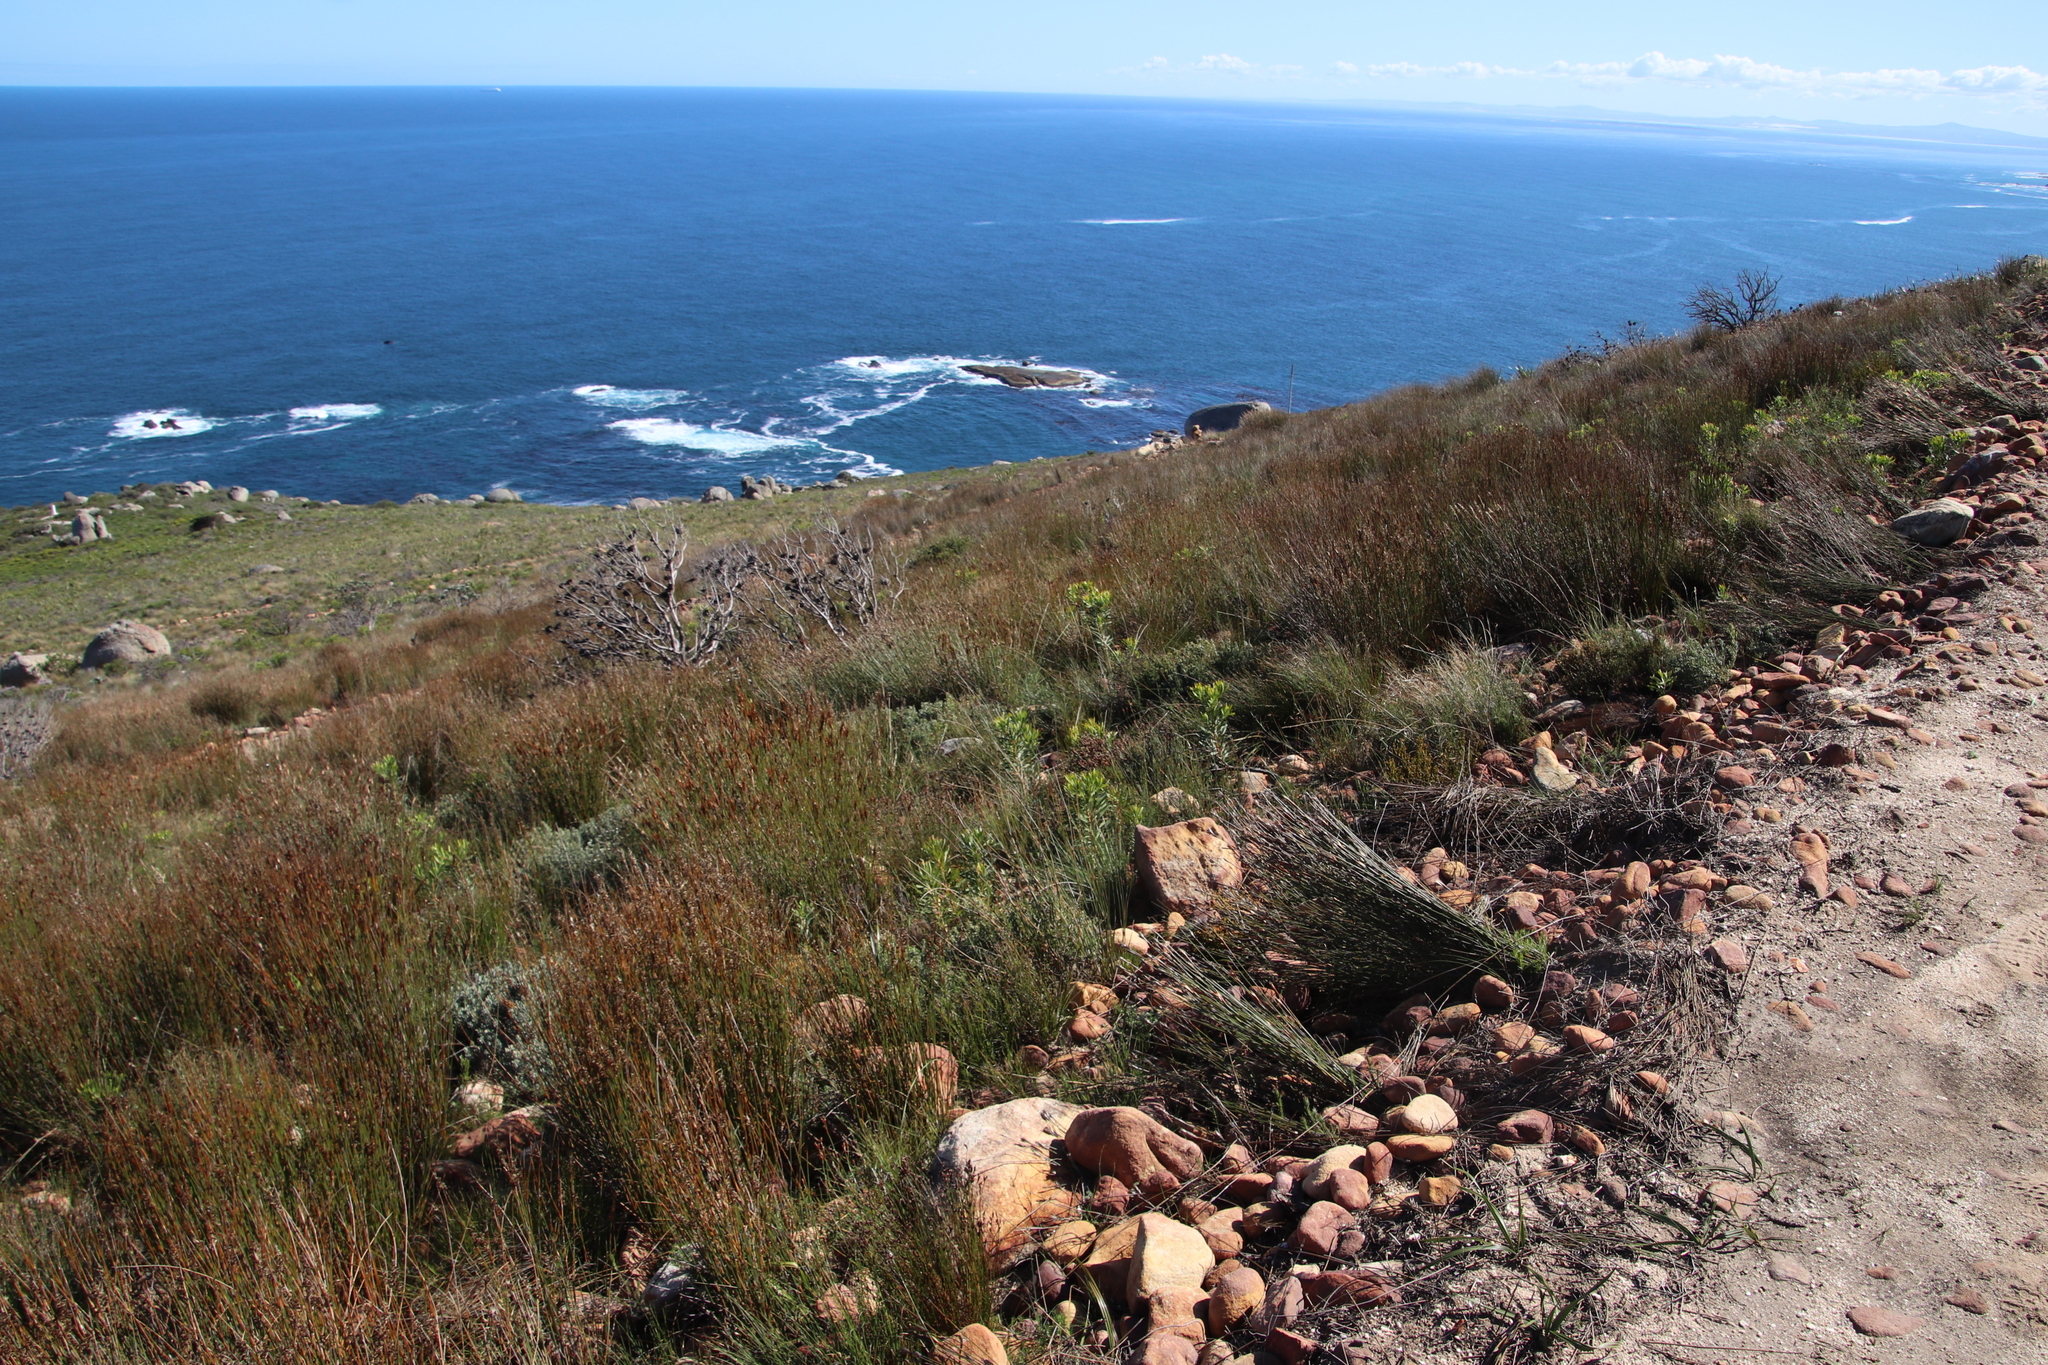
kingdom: Plantae
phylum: Tracheophyta
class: Liliopsida
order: Poales
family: Restionaceae
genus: Hypodiscus
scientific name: Hypodiscus argenteus
